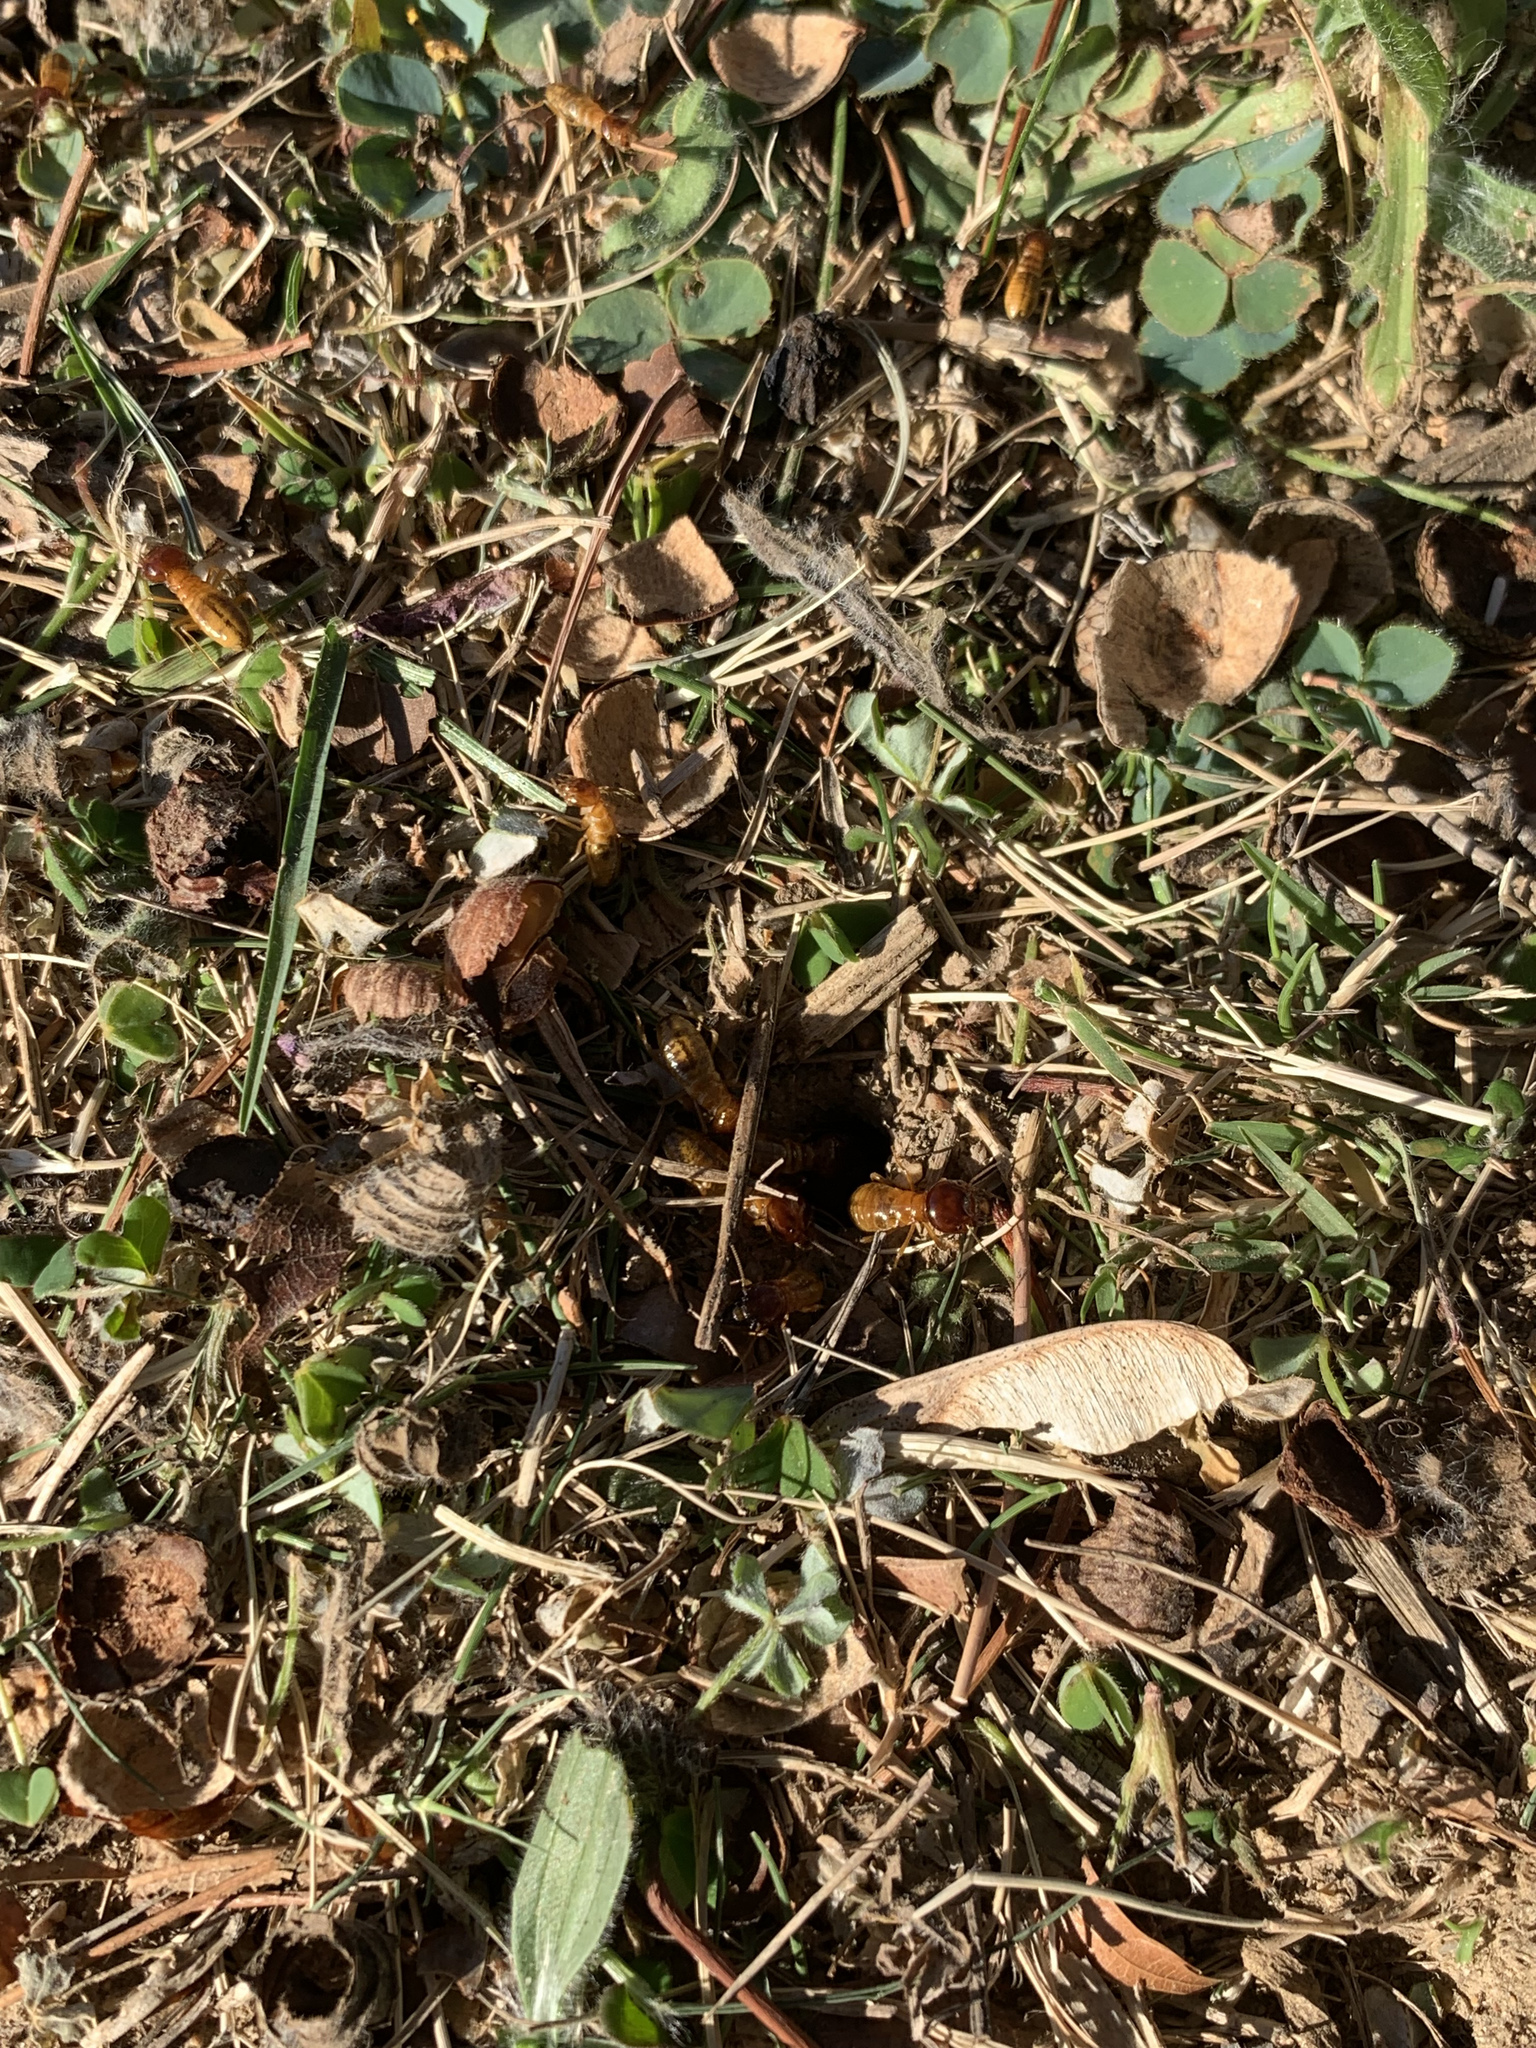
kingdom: Animalia
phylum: Arthropoda
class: Insecta
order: Blattodea
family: Hodotermitidae
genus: Microhodotermes
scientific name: Microhodotermes viator
